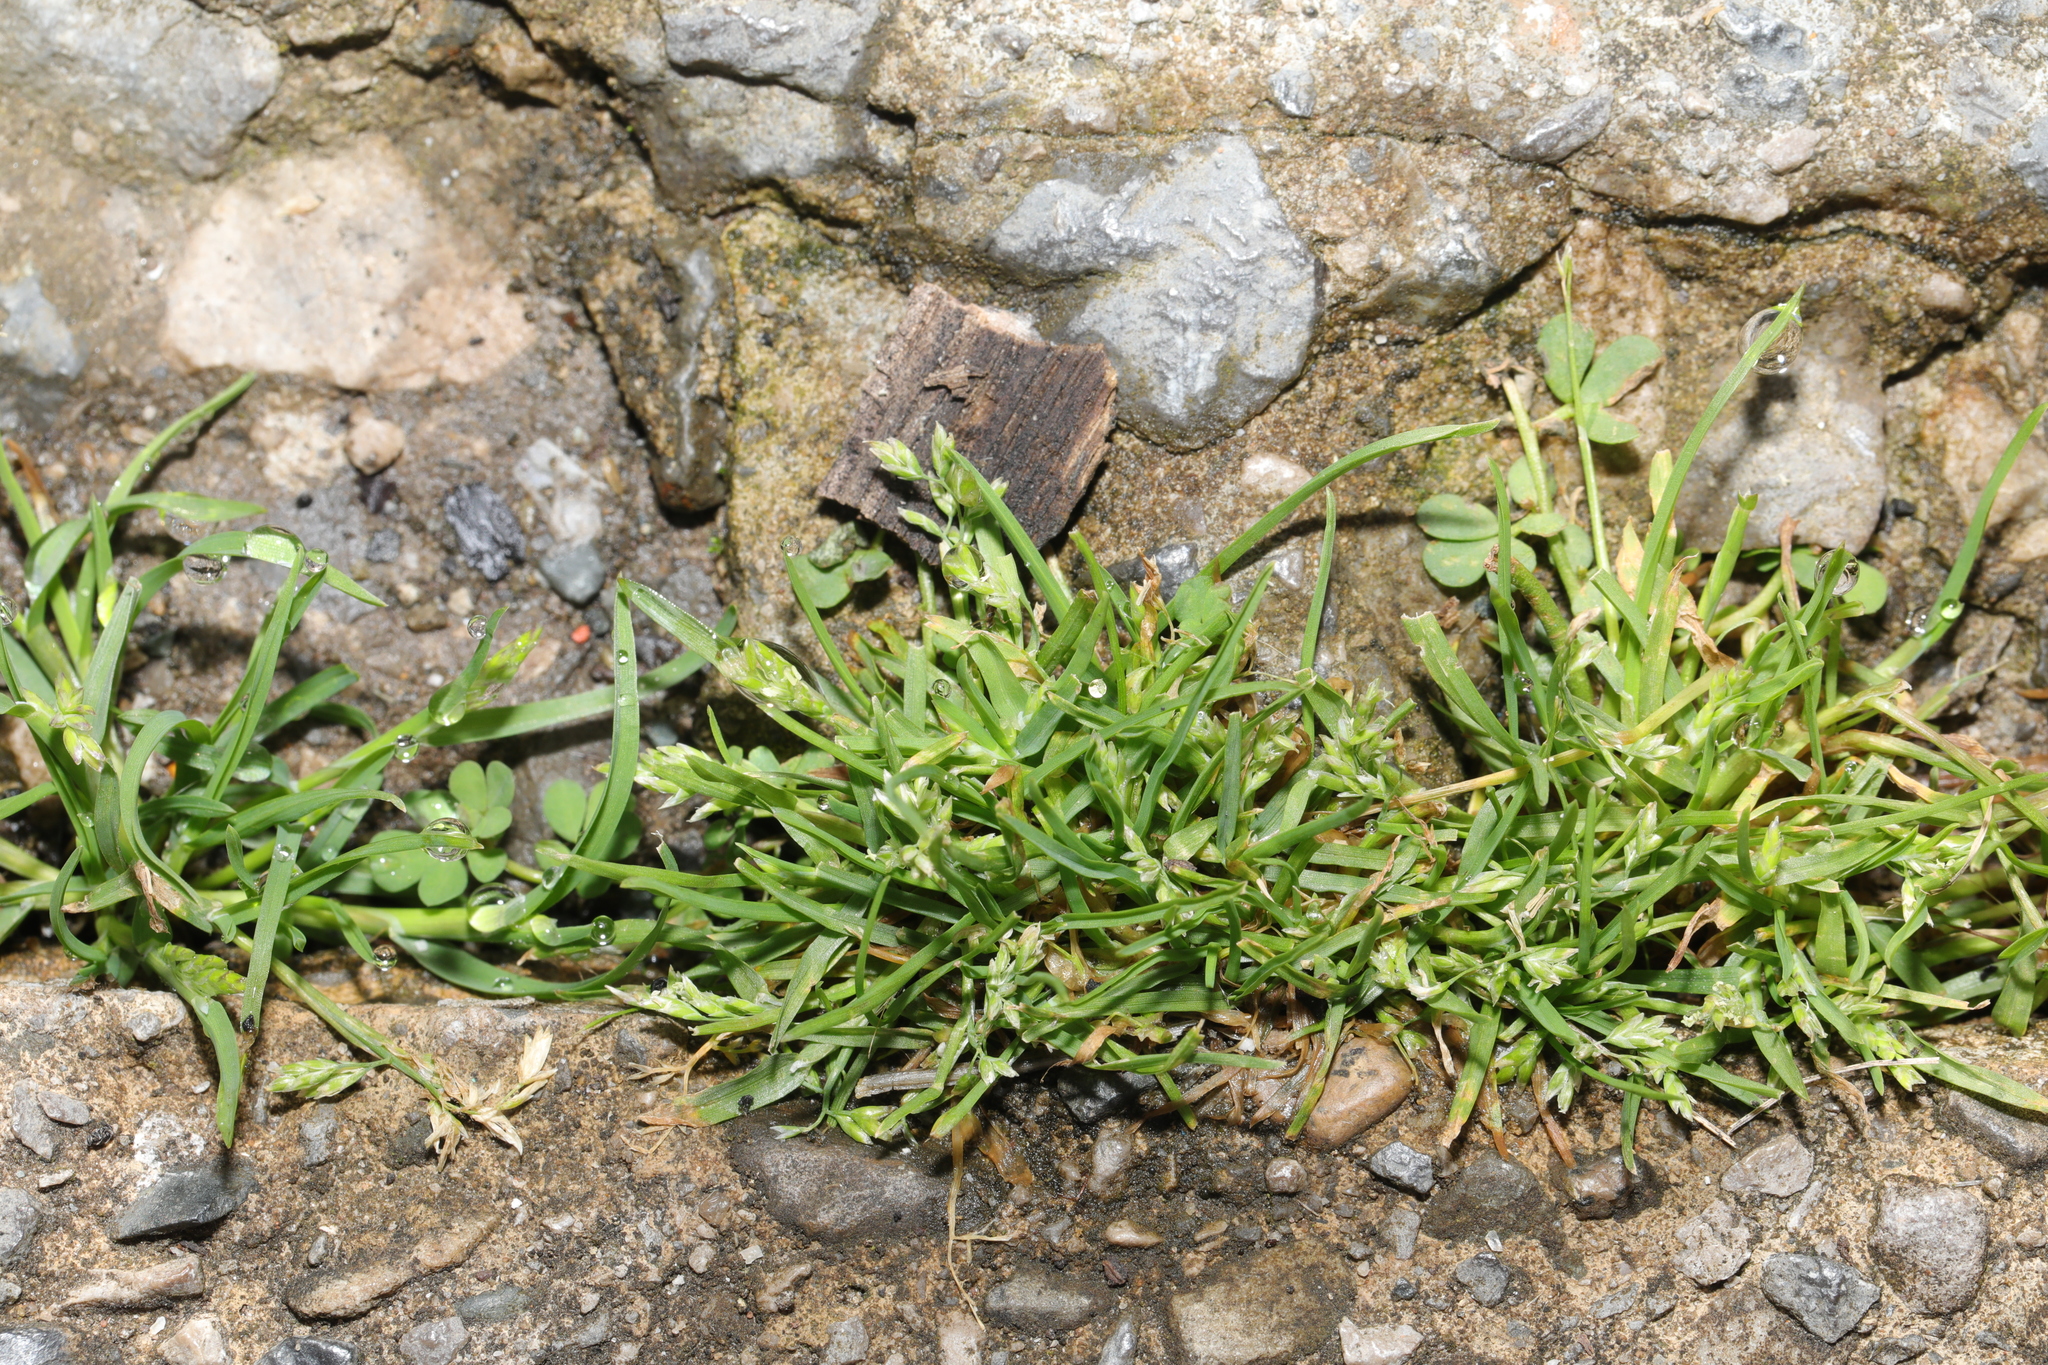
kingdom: Plantae
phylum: Tracheophyta
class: Liliopsida
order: Poales
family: Poaceae
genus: Poa
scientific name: Poa annua
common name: Annual bluegrass
